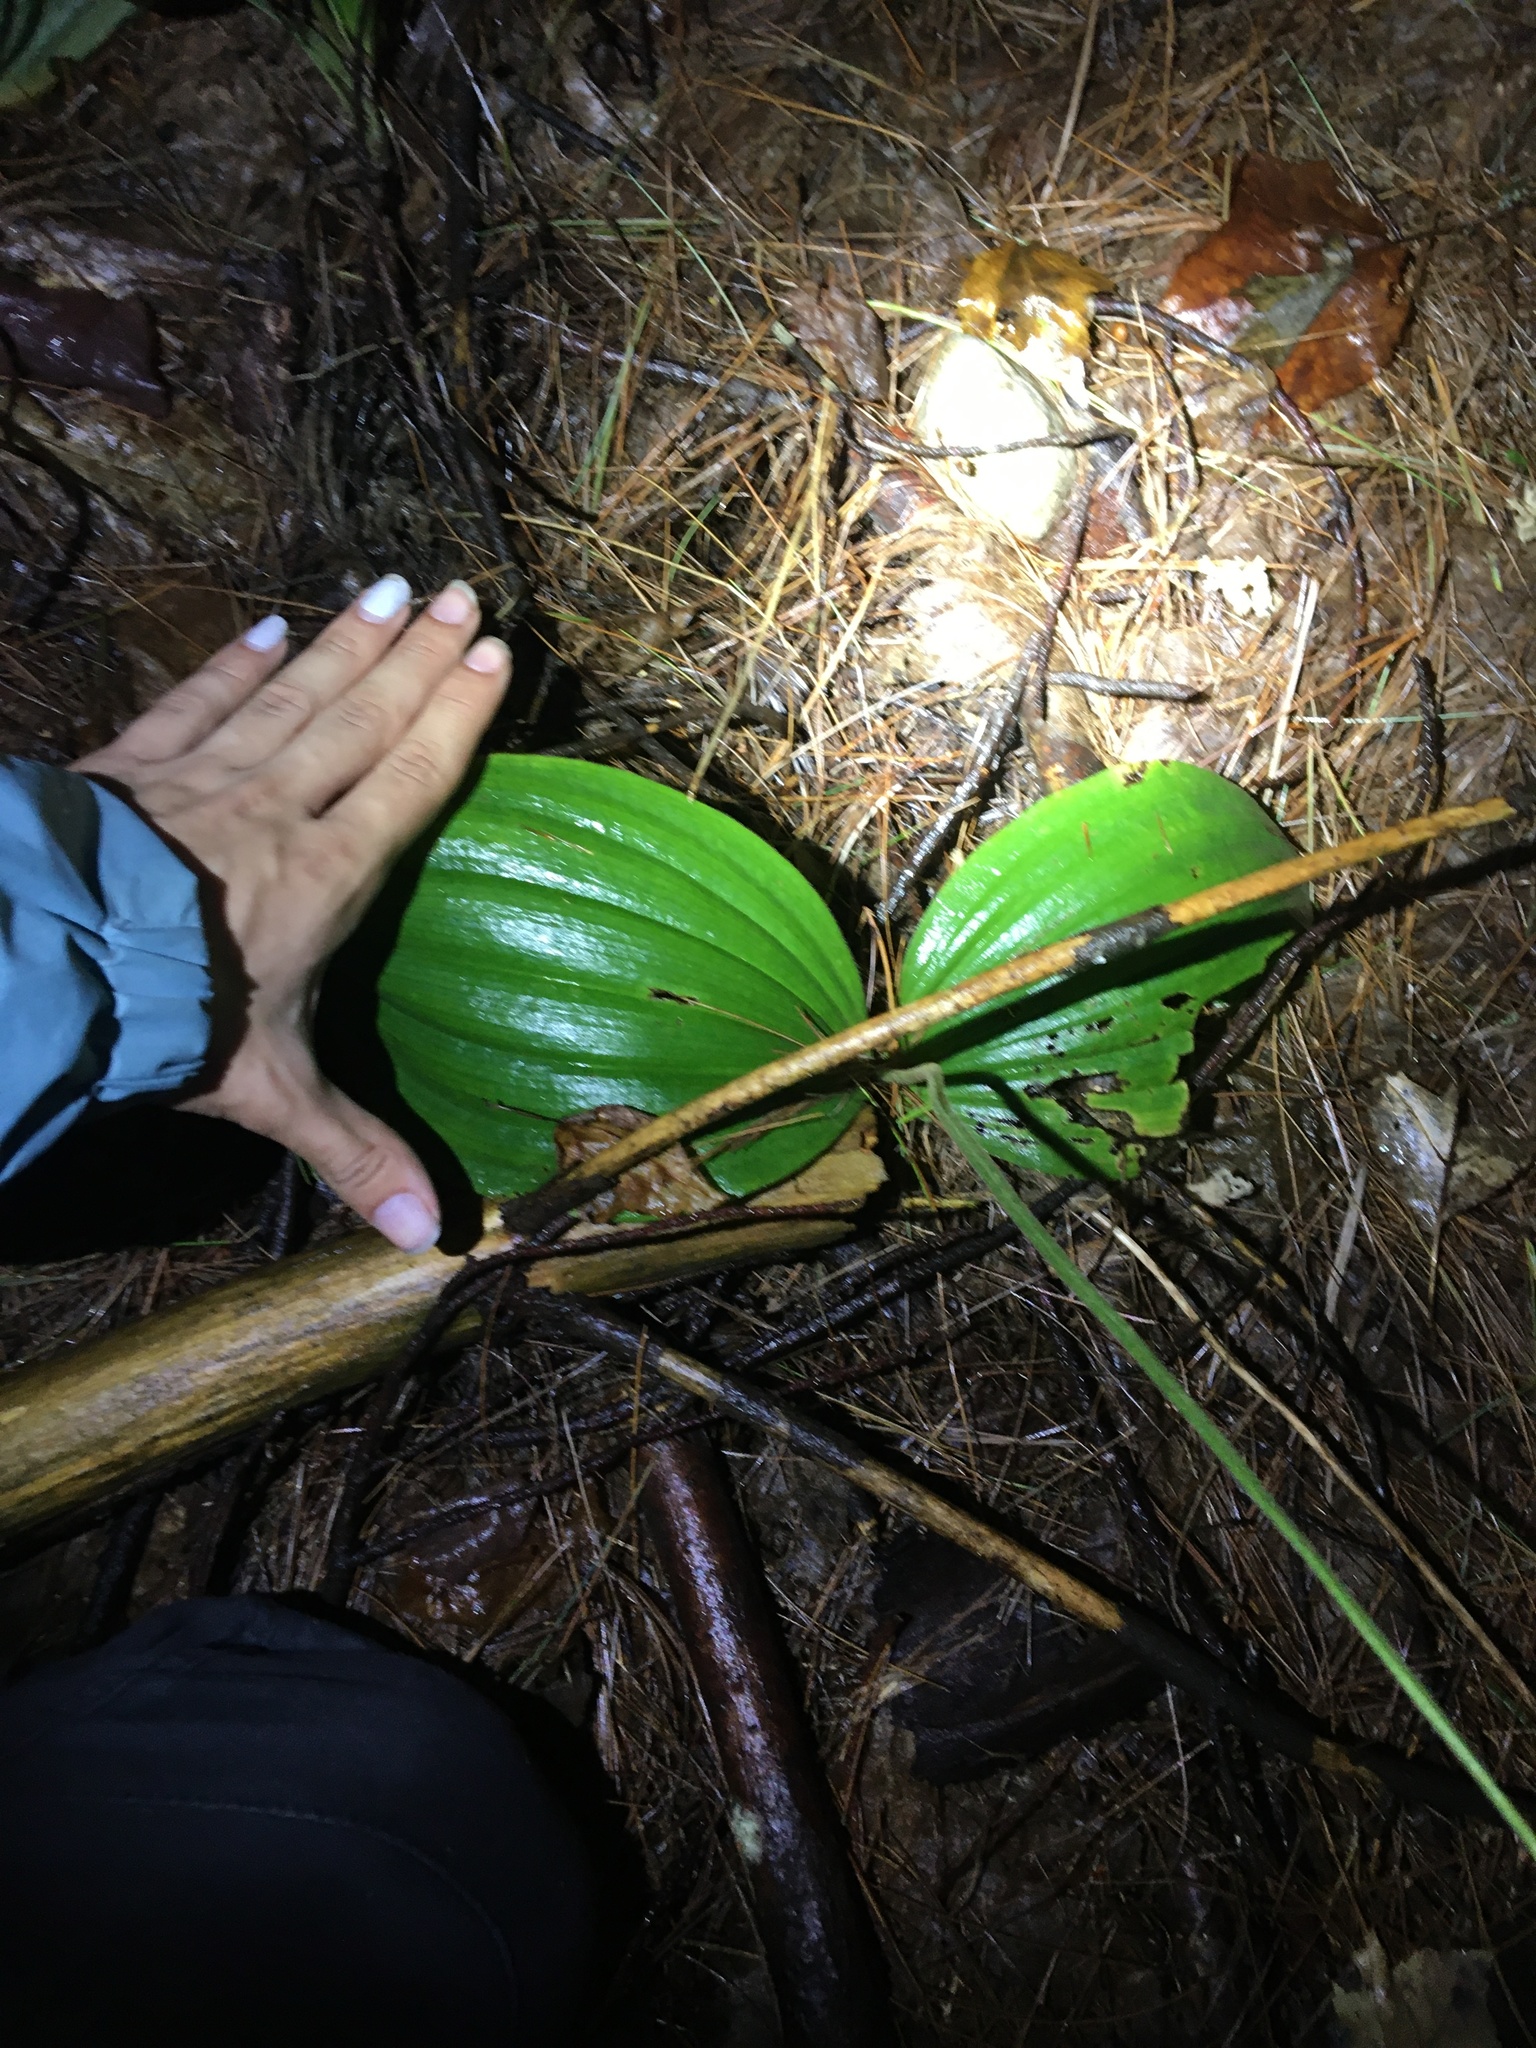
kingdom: Plantae
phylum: Tracheophyta
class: Liliopsida
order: Asparagales
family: Orchidaceae
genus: Cypripedium
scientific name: Cypripedium acaule
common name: Pink lady's-slipper
